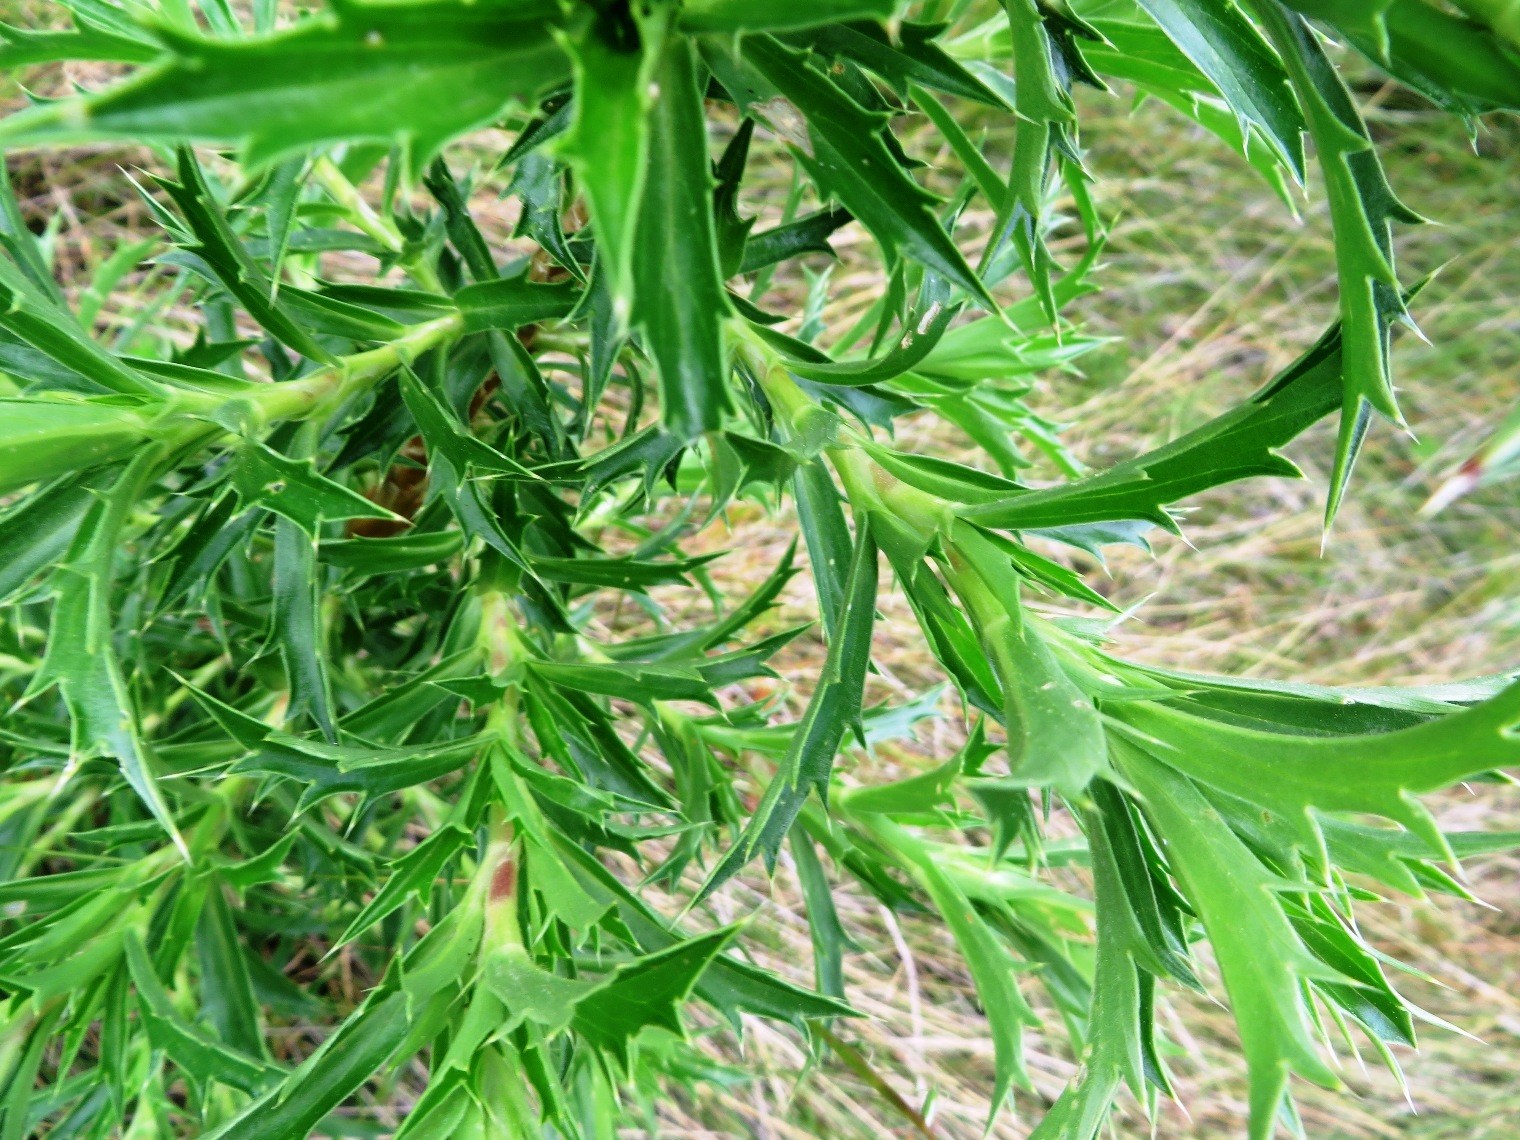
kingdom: Plantae
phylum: Tracheophyta
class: Magnoliopsida
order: Rosales
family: Rosaceae
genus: Cliffortia
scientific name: Cliffortia phillipsii
